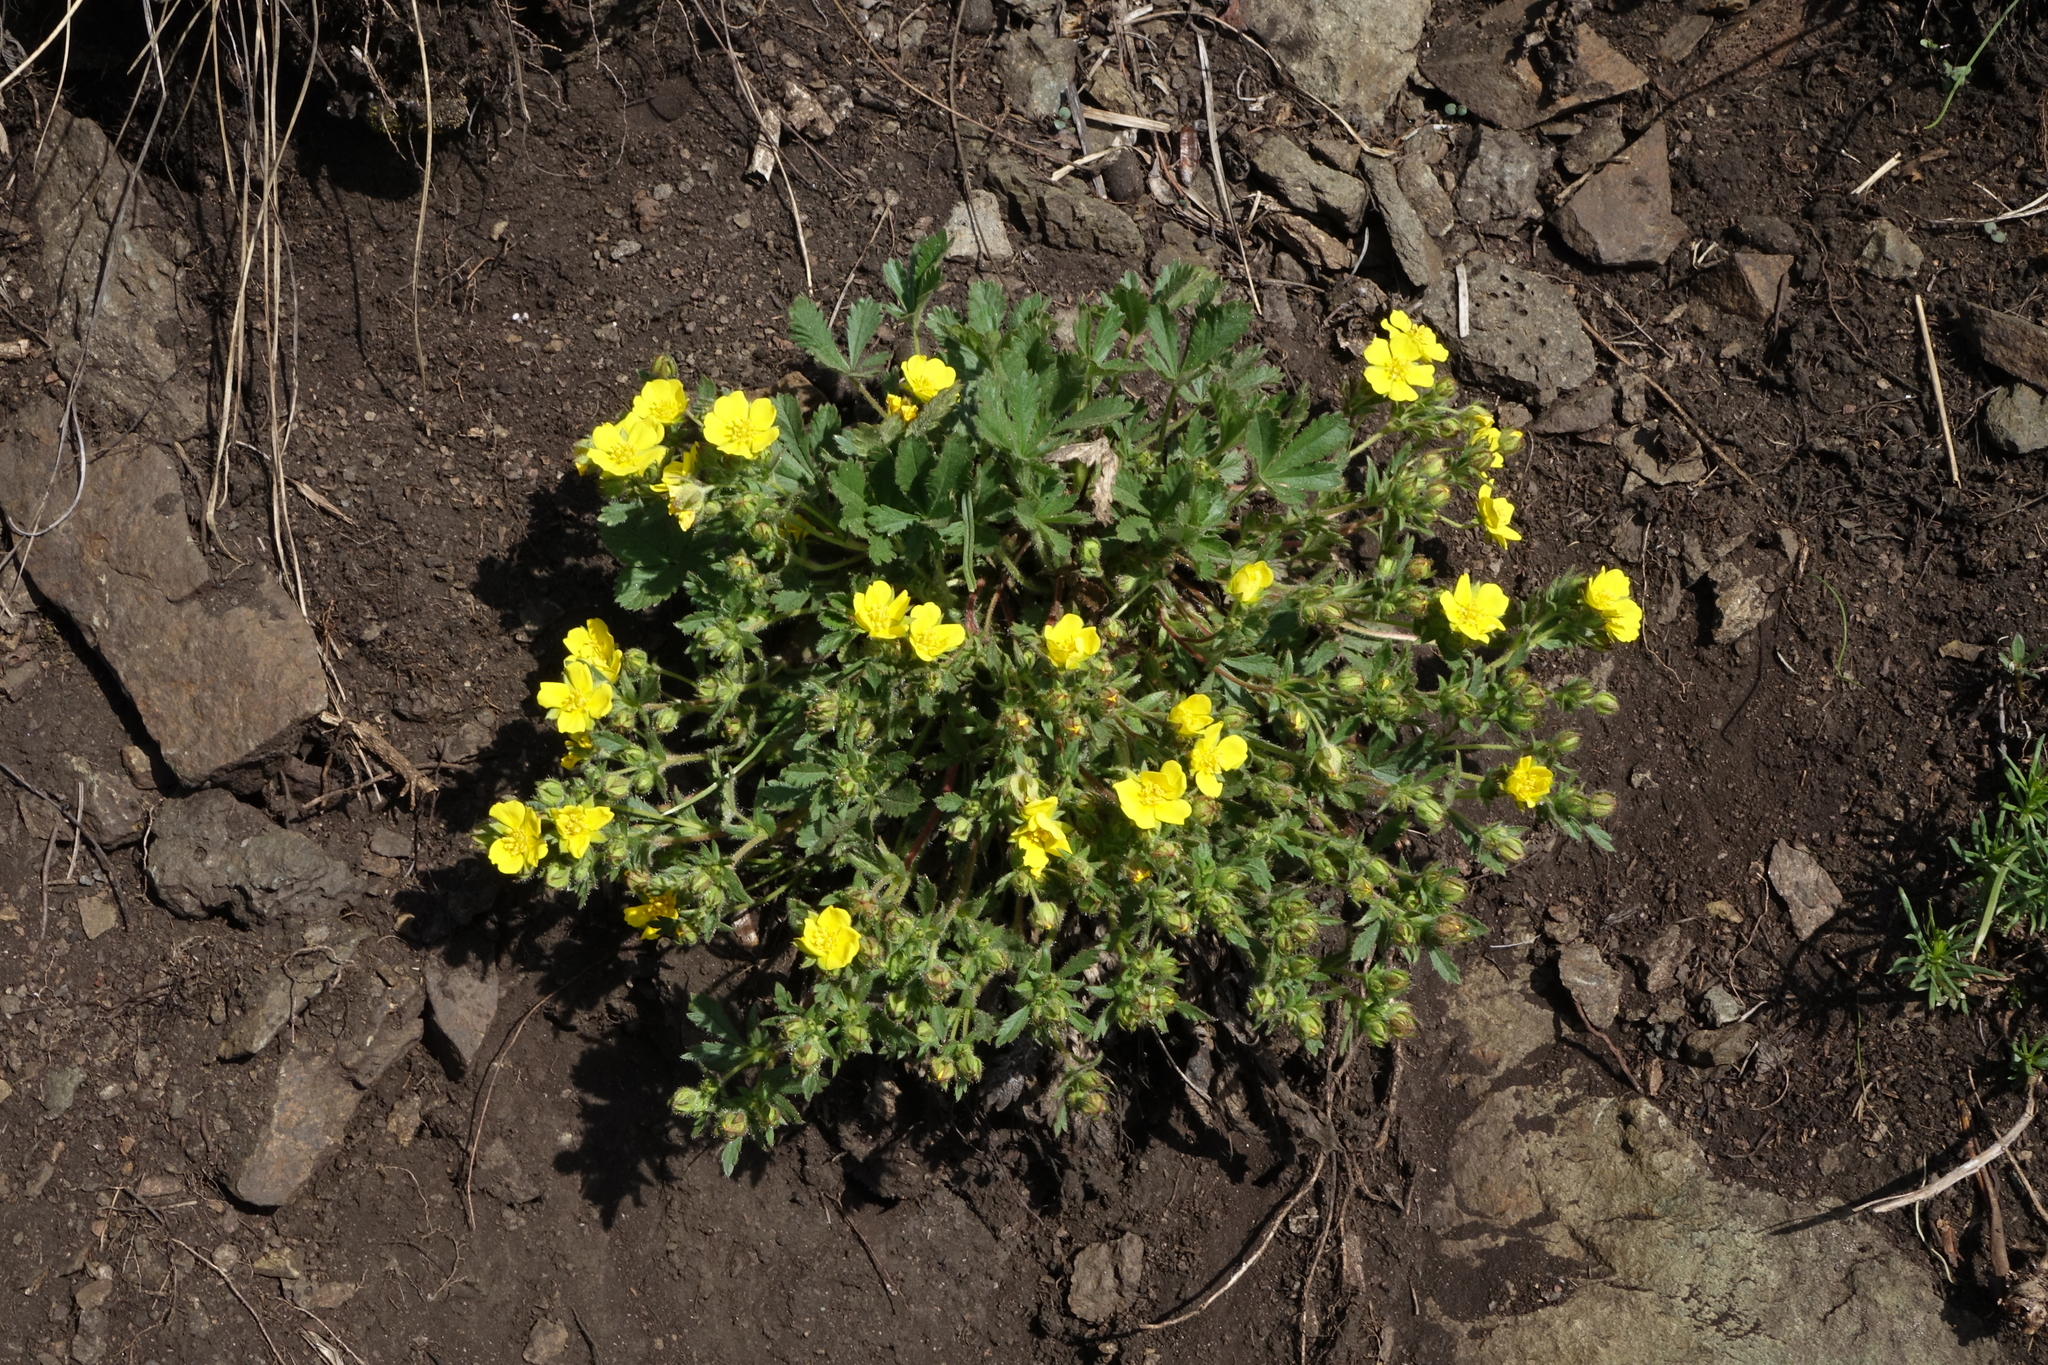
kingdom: Plantae
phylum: Tracheophyta
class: Magnoliopsida
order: Rosales
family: Rosaceae
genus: Potentilla
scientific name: Potentilla humifusa
